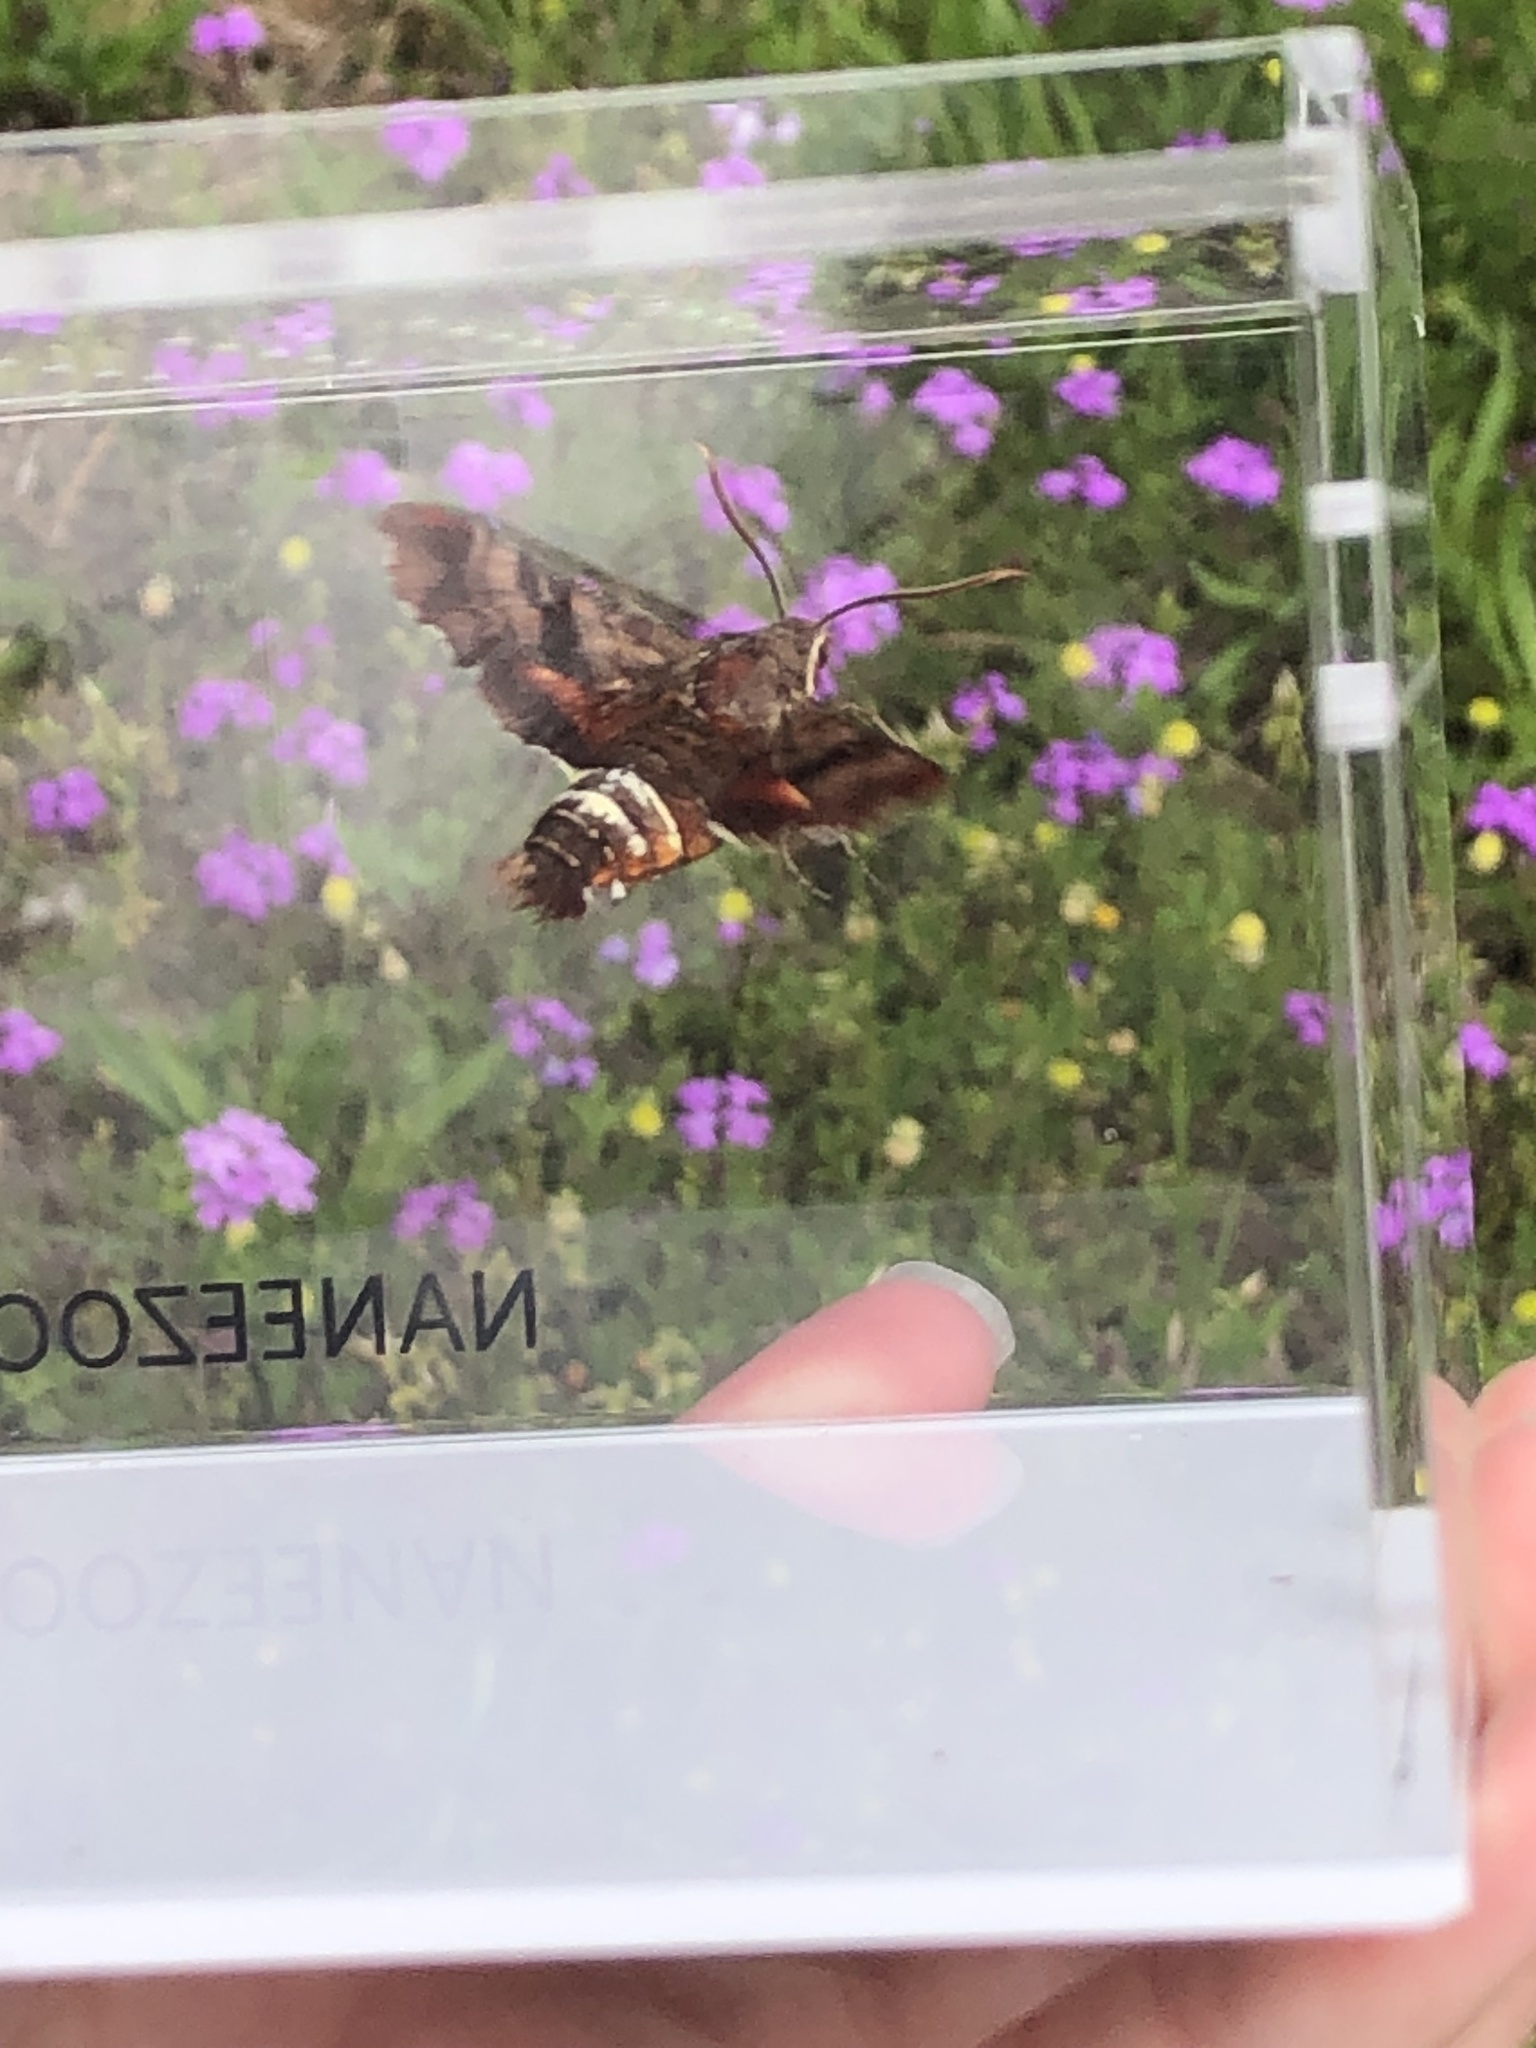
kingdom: Animalia
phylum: Arthropoda
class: Insecta
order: Lepidoptera
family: Sphingidae
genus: Amphion
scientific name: Amphion floridensis
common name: Nessus sphinx
